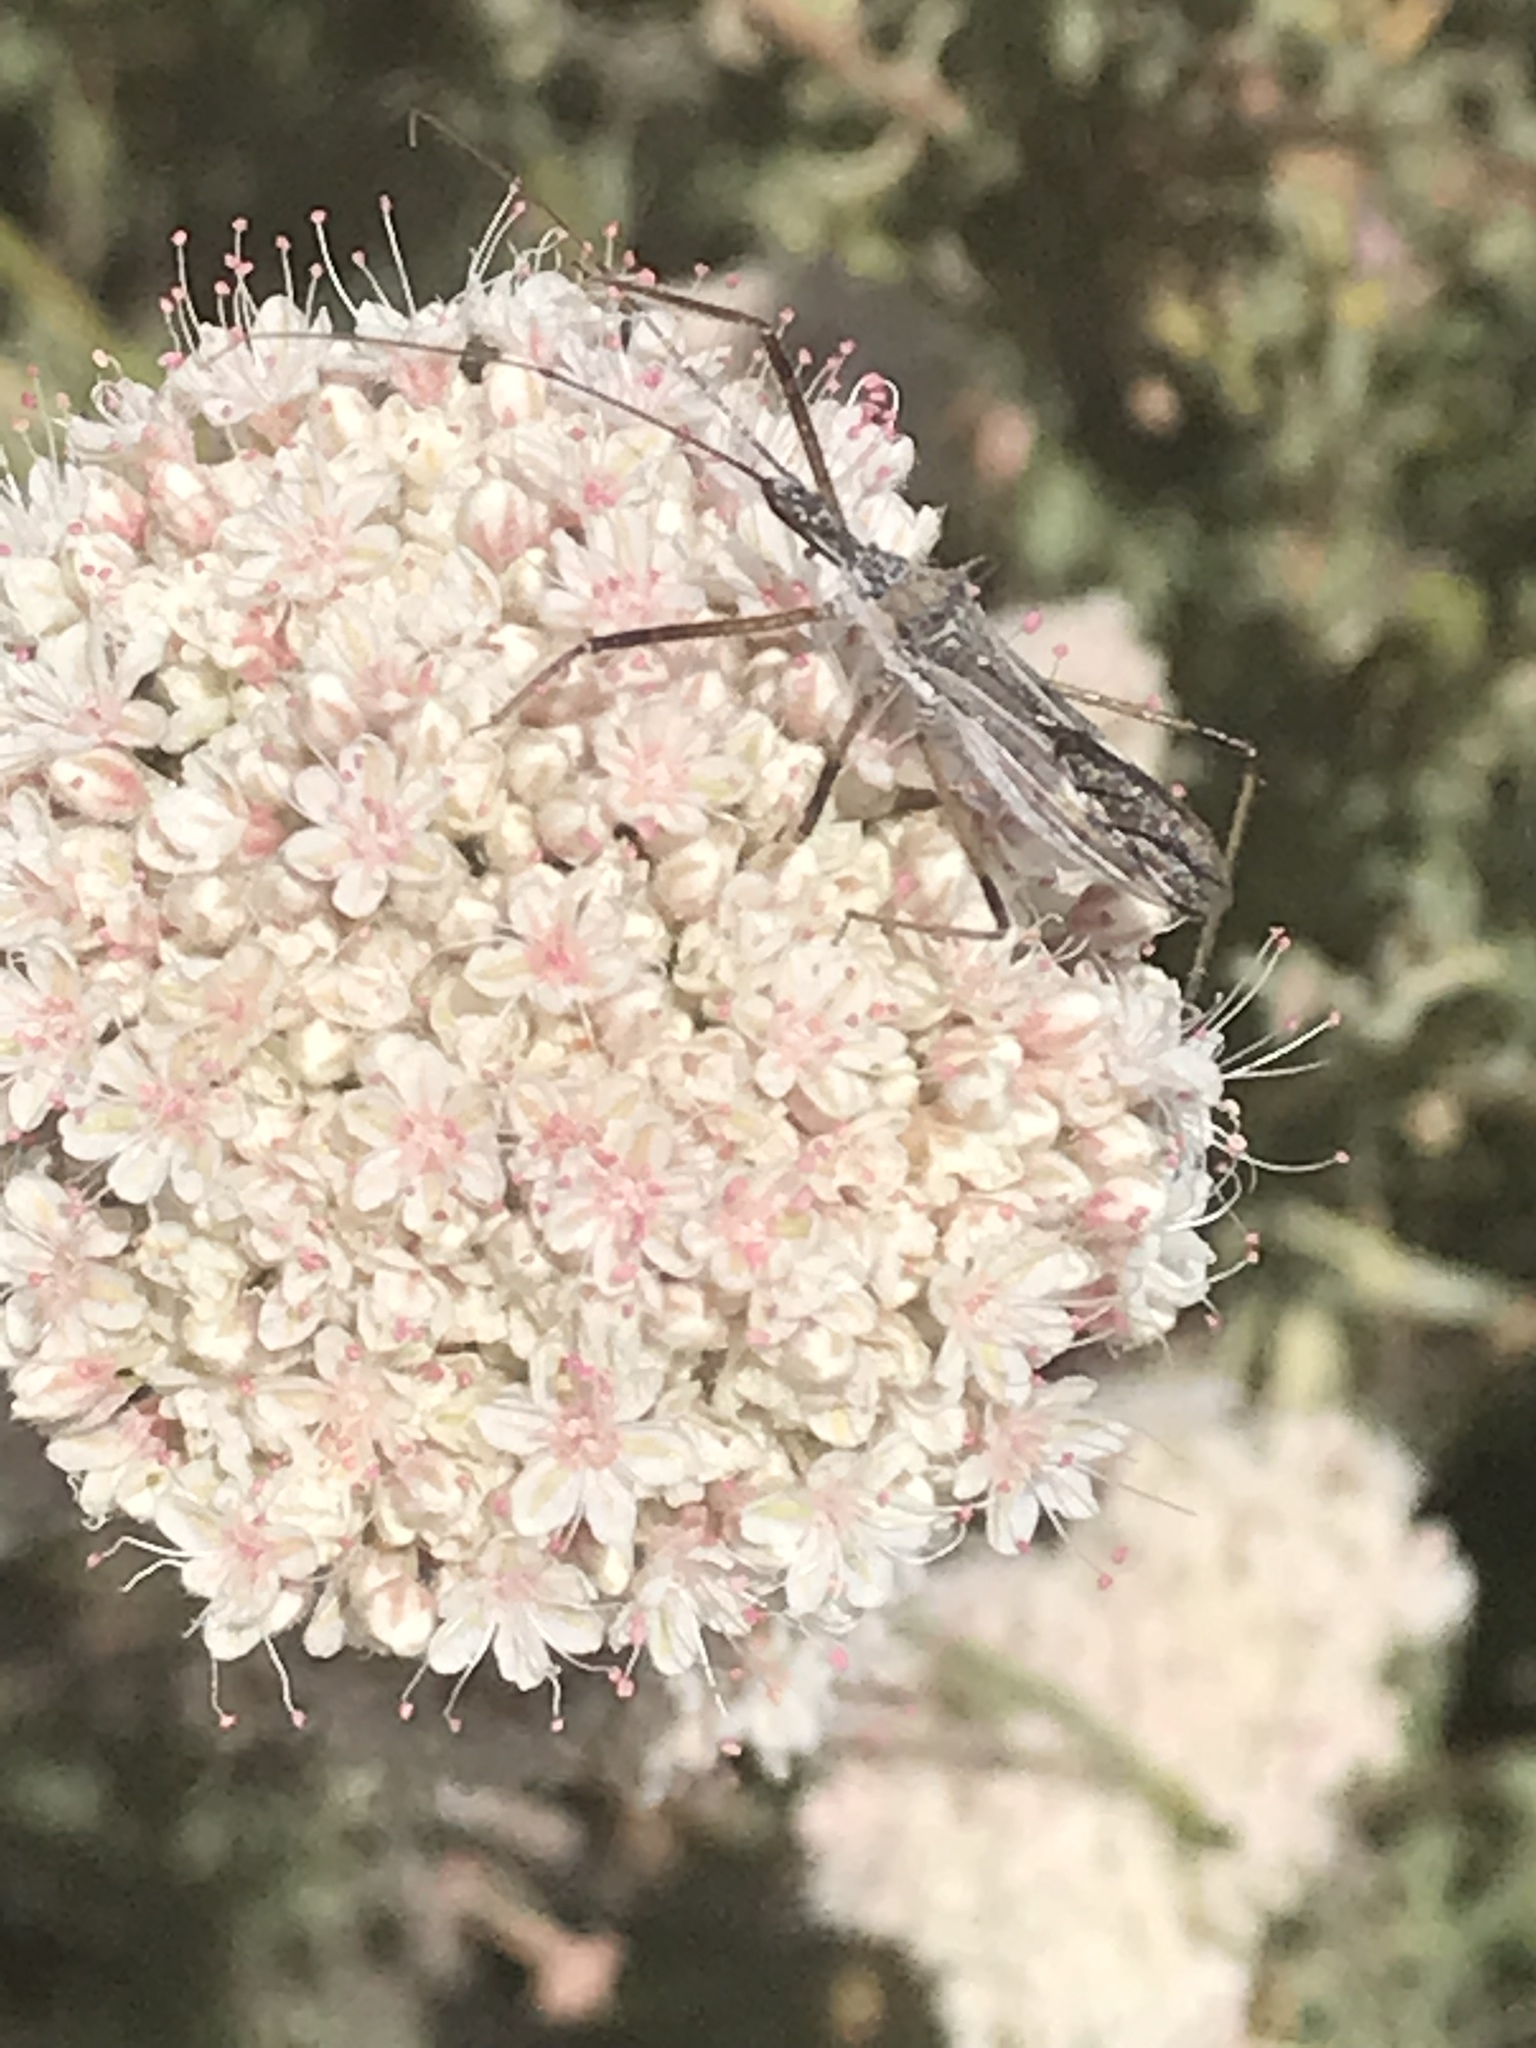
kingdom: Animalia
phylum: Arthropoda
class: Insecta
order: Hemiptera
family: Reduviidae
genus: Zelus
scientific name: Zelus tetracanthus
